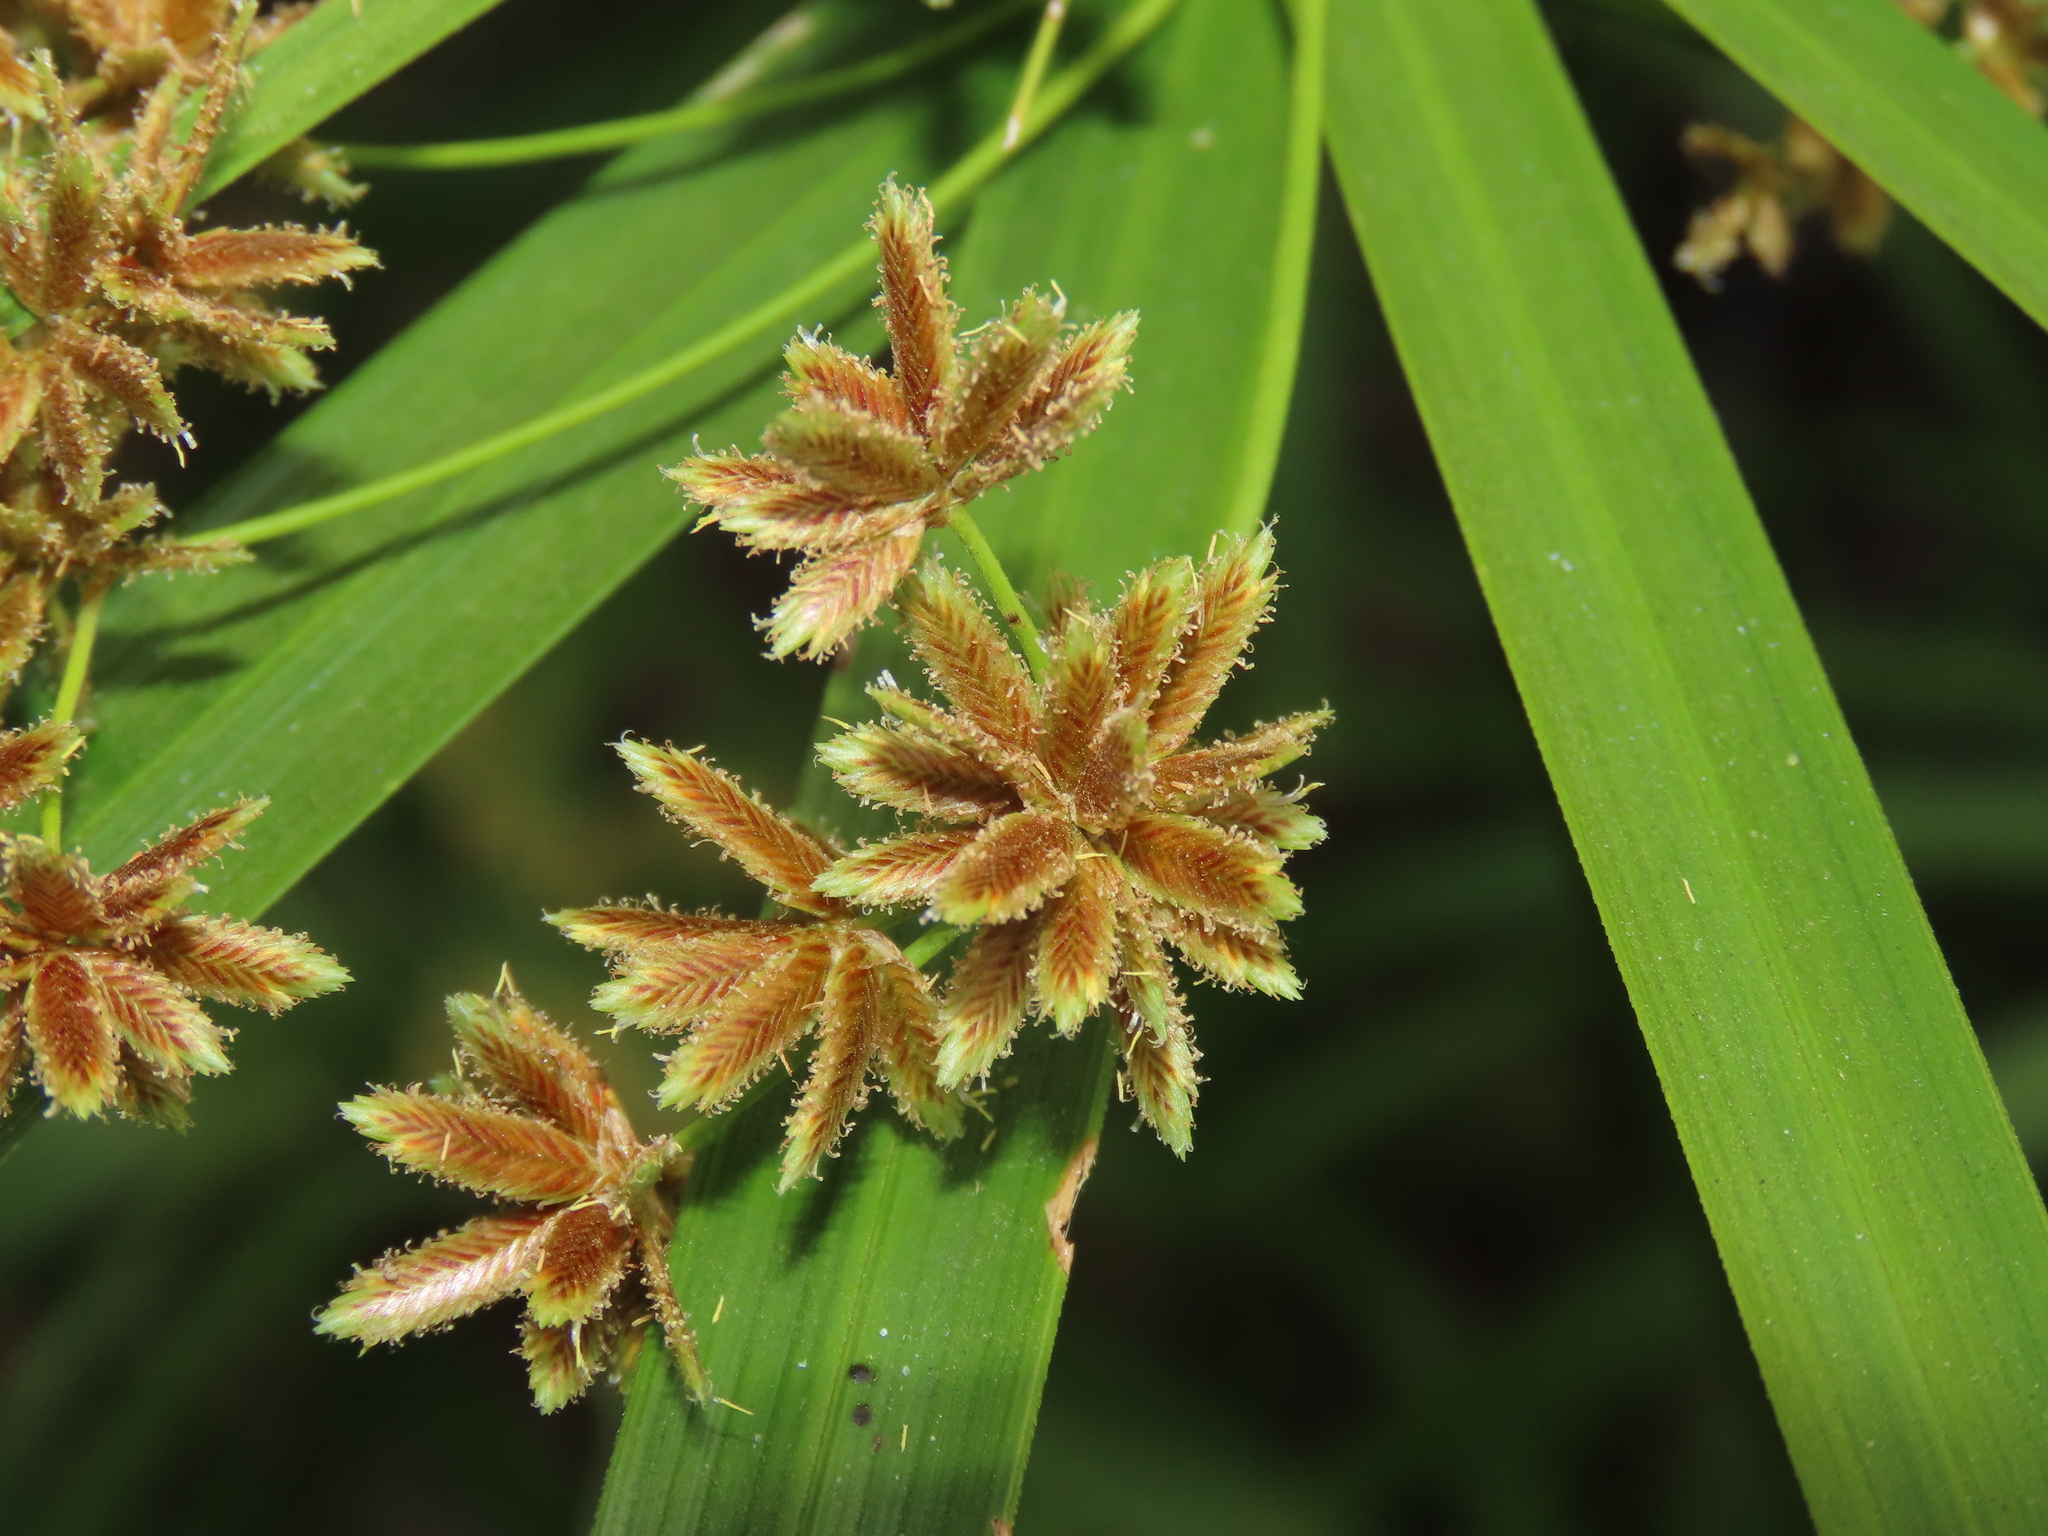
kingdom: Plantae
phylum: Tracheophyta
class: Liliopsida
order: Poales
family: Cyperaceae
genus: Cyperus
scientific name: Cyperus alternifolius
